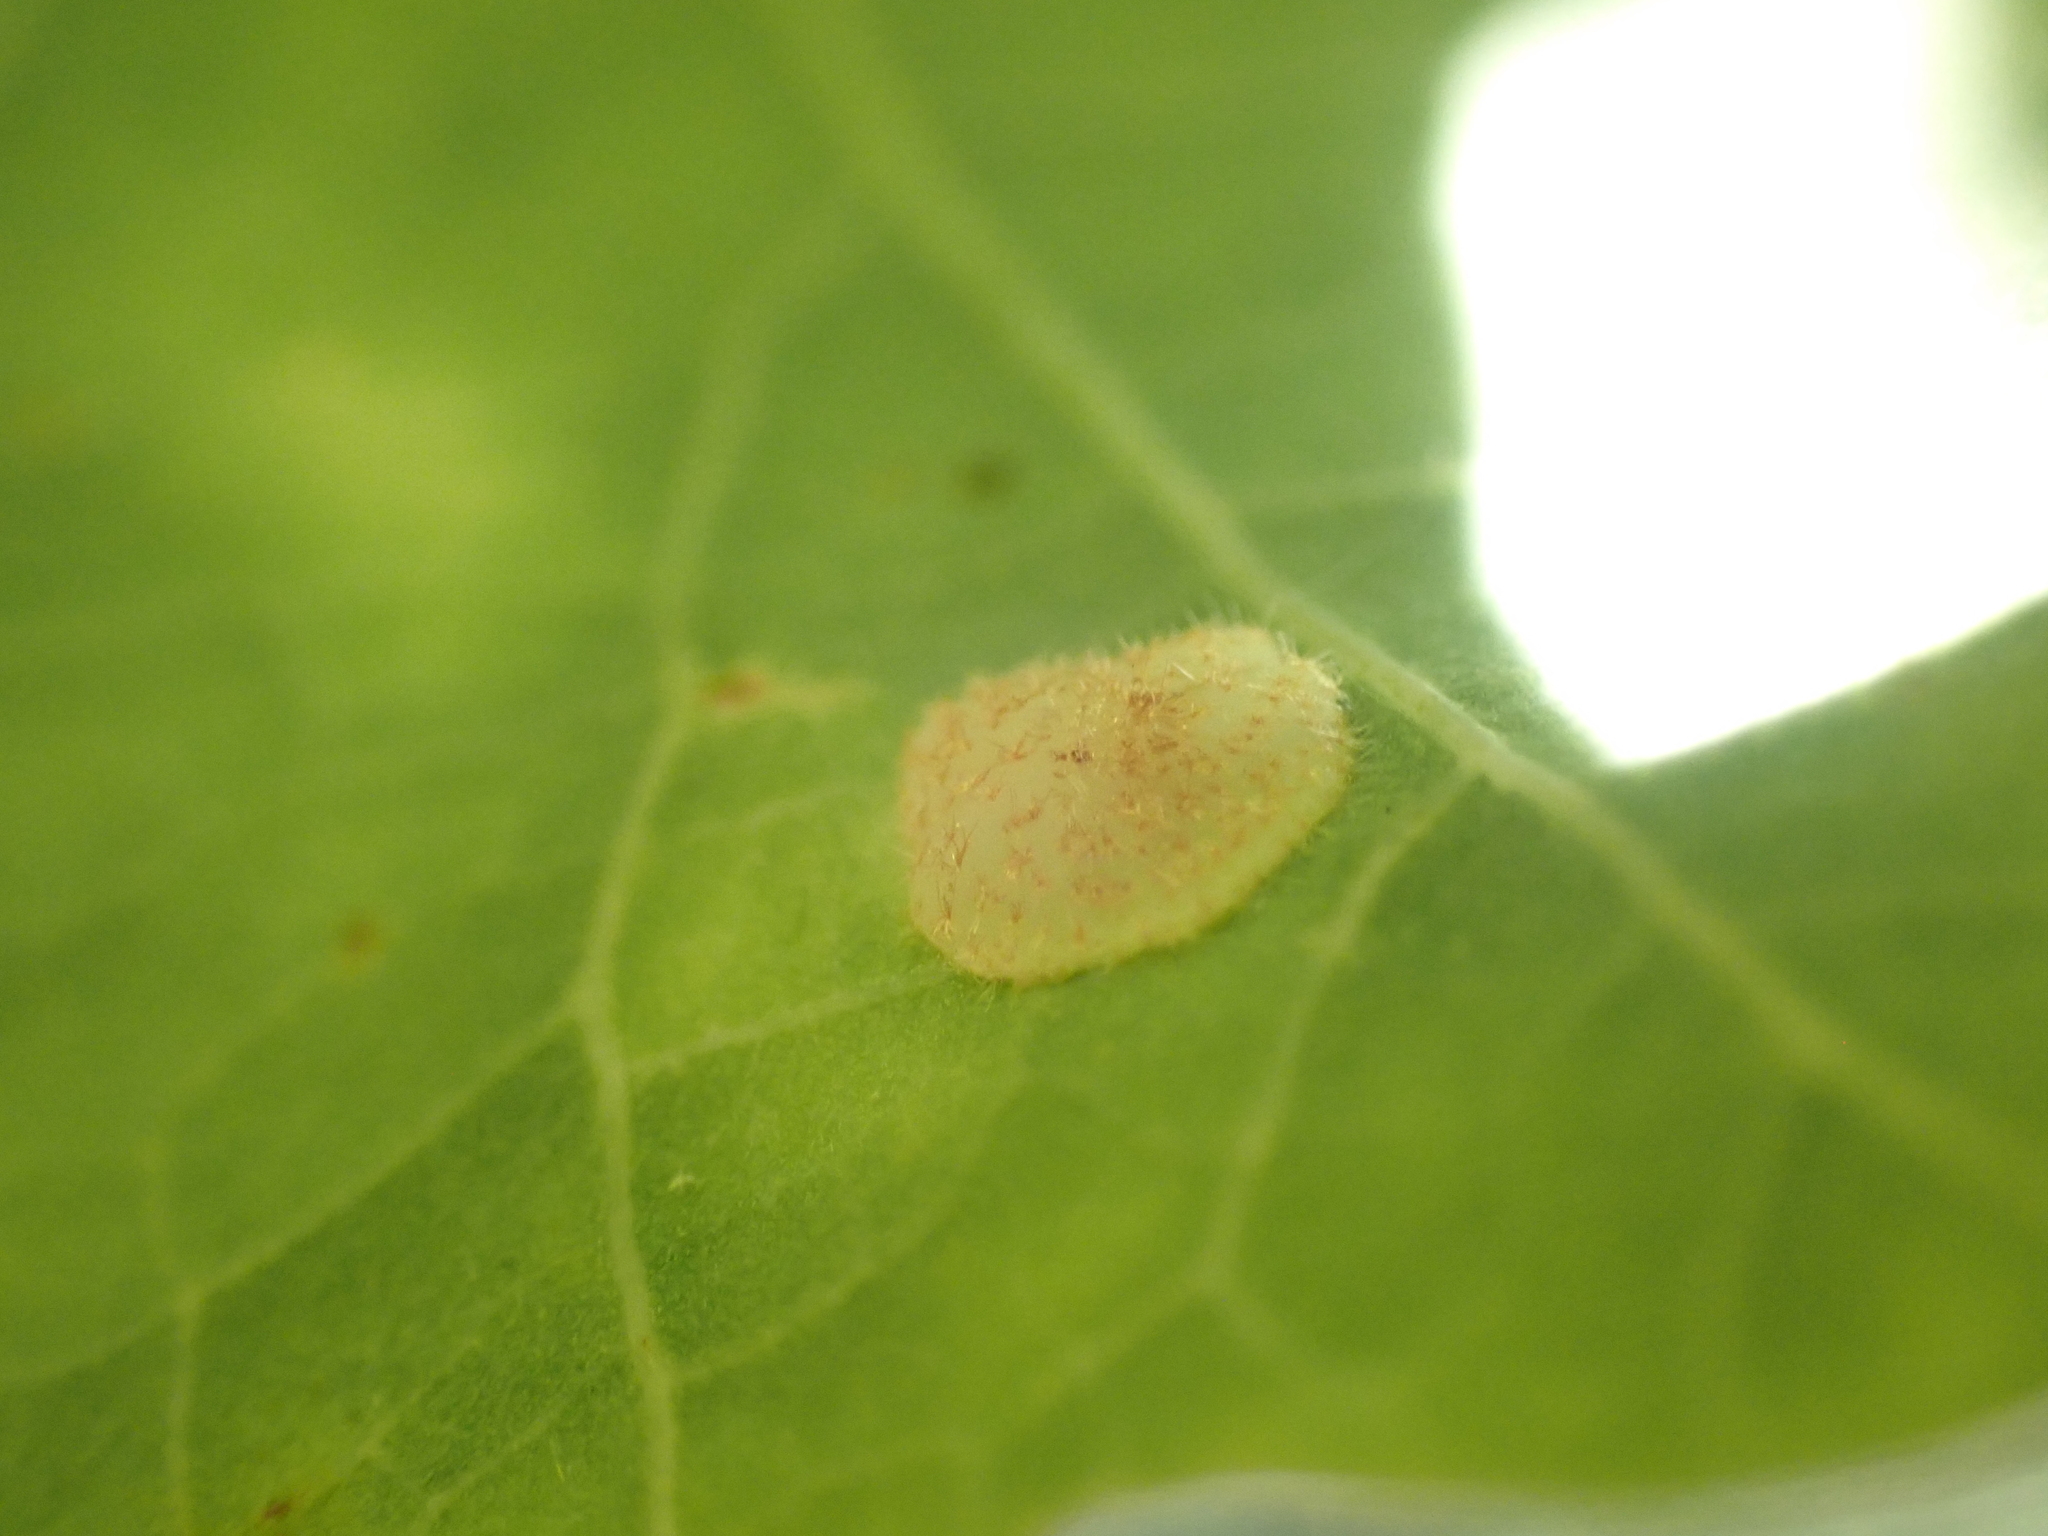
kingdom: Animalia
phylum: Arthropoda
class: Insecta
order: Hymenoptera
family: Cynipidae
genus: Neuroterus
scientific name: Neuroterus quercusbaccarum
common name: Common spangle gall
